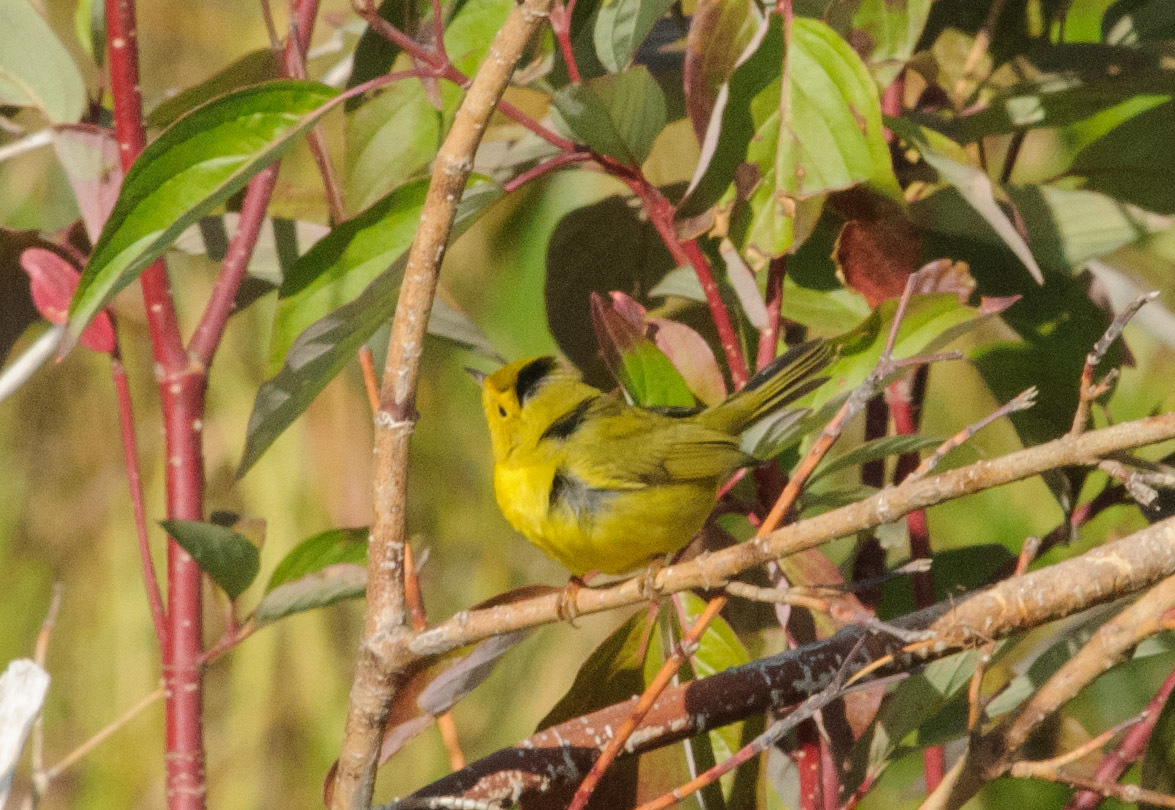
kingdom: Animalia
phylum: Chordata
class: Aves
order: Passeriformes
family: Parulidae
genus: Cardellina
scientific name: Cardellina pusilla
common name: Wilson's warbler
